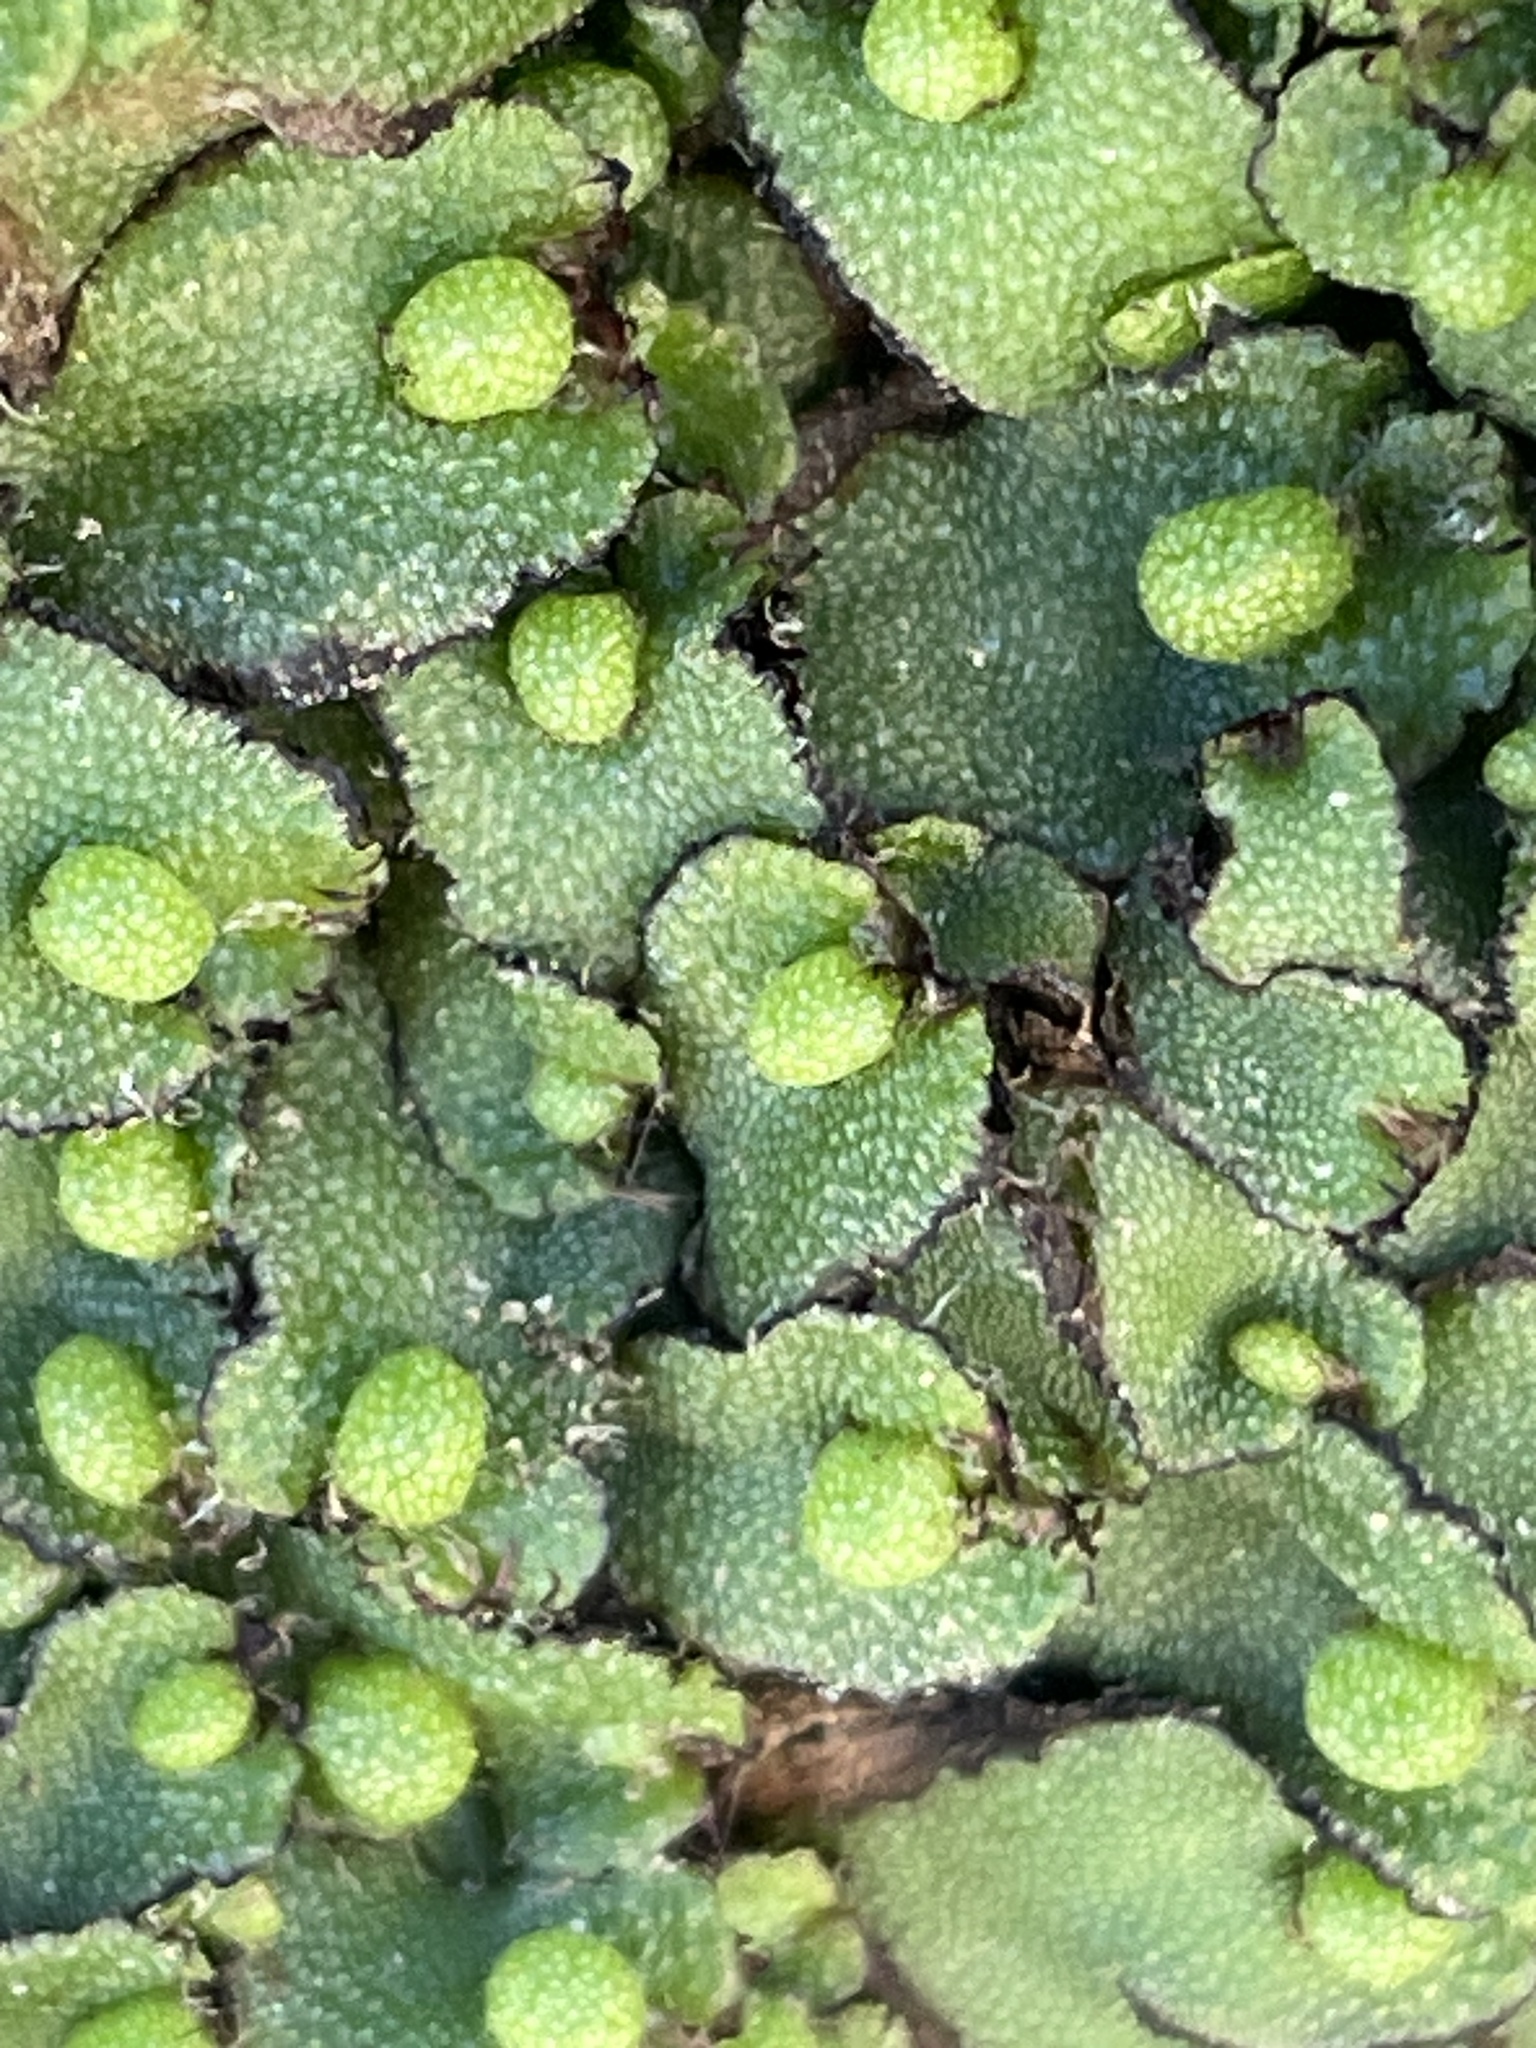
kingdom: Plantae
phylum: Marchantiophyta
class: Marchantiopsida
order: Marchantiales
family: Aytoniaceae
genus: Asterella
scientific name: Asterella californica
